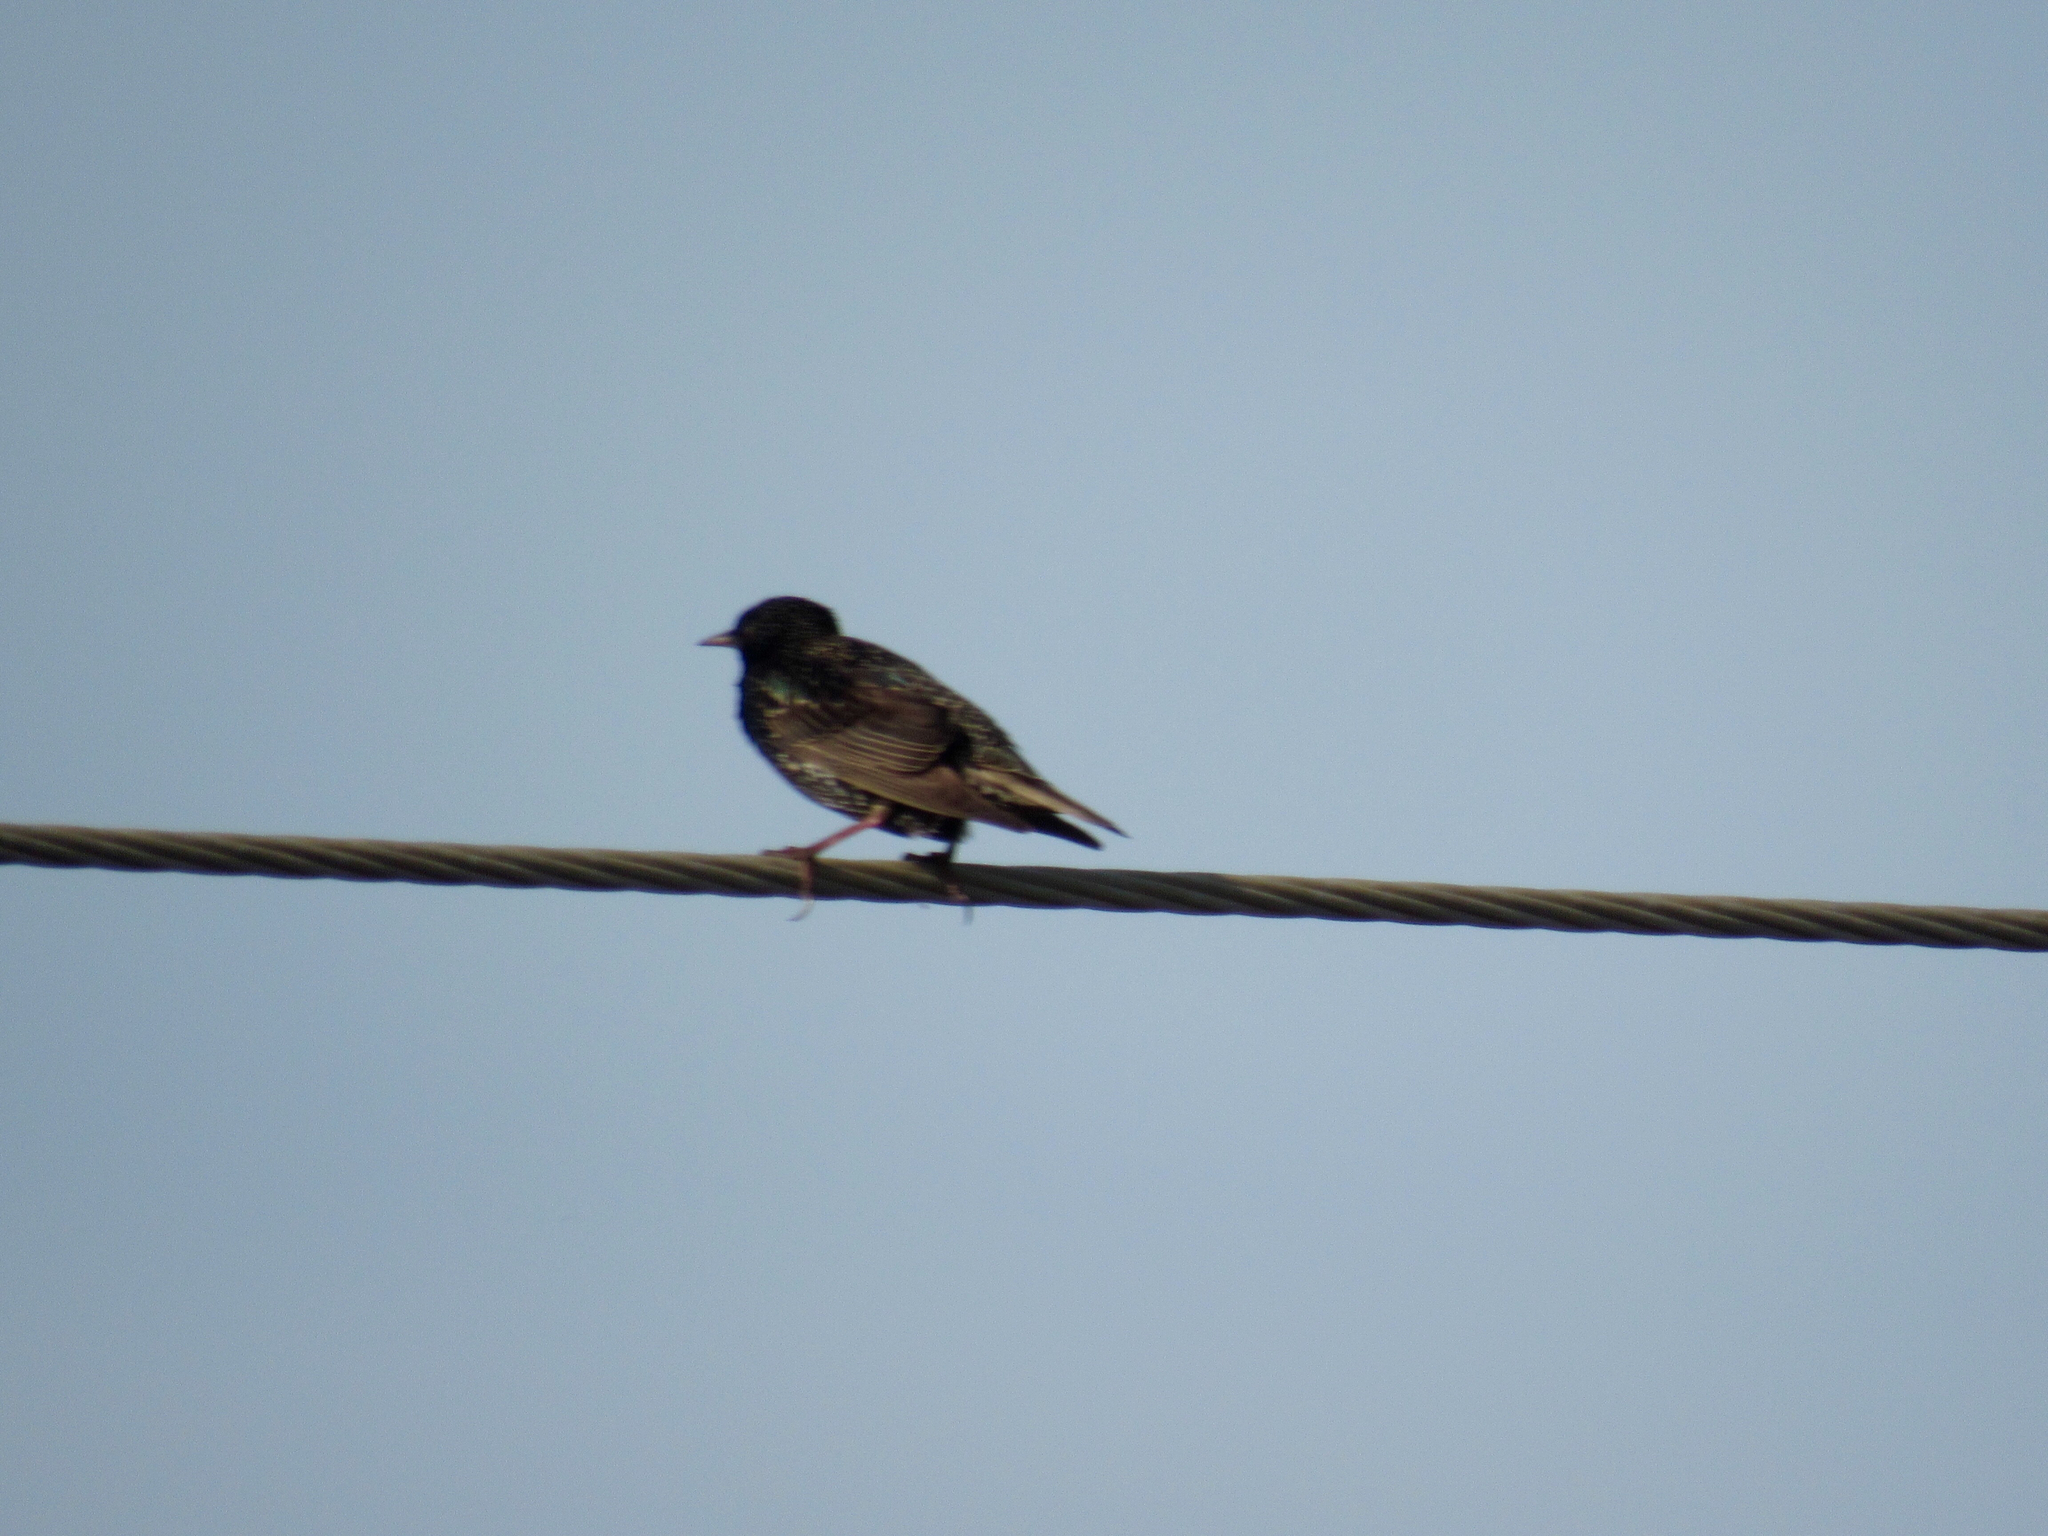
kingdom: Animalia
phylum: Chordata
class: Aves
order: Passeriformes
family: Sturnidae
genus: Sturnus
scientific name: Sturnus vulgaris
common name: Common starling
